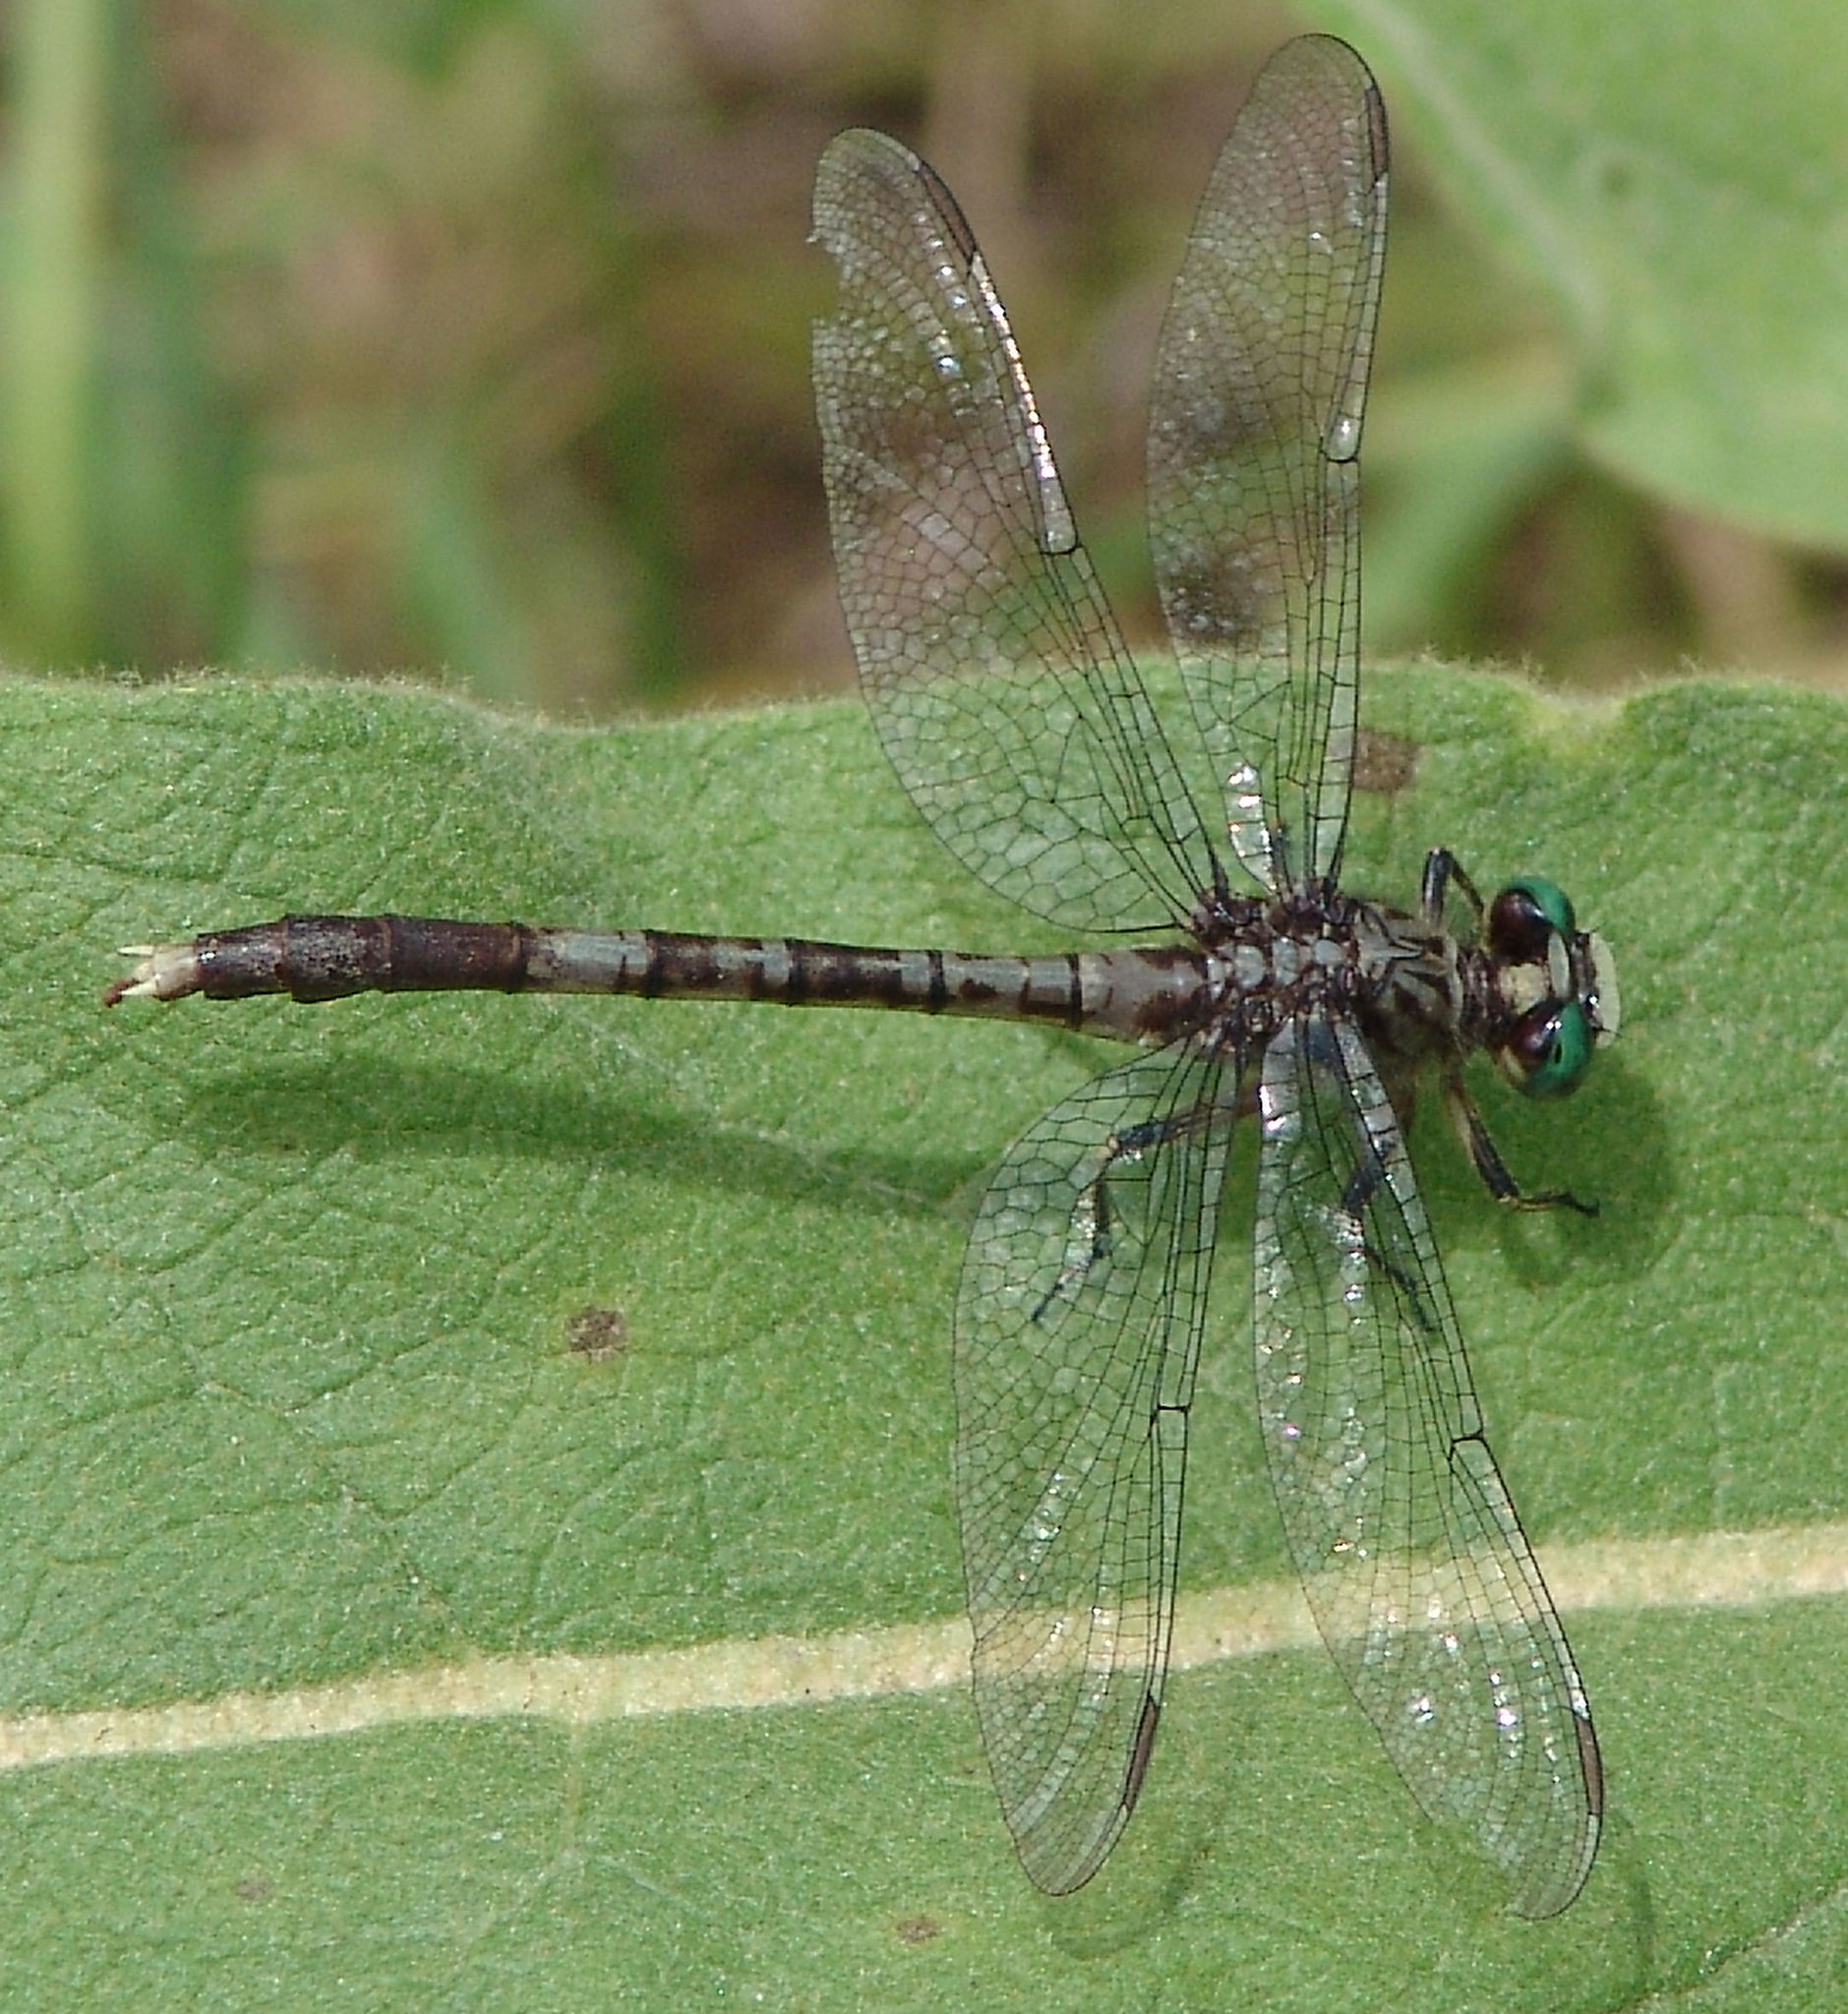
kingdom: Animalia
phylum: Arthropoda
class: Insecta
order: Odonata
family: Gomphidae
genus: Arigomphus
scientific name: Arigomphus maxwelli
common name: Bayou clubtail
